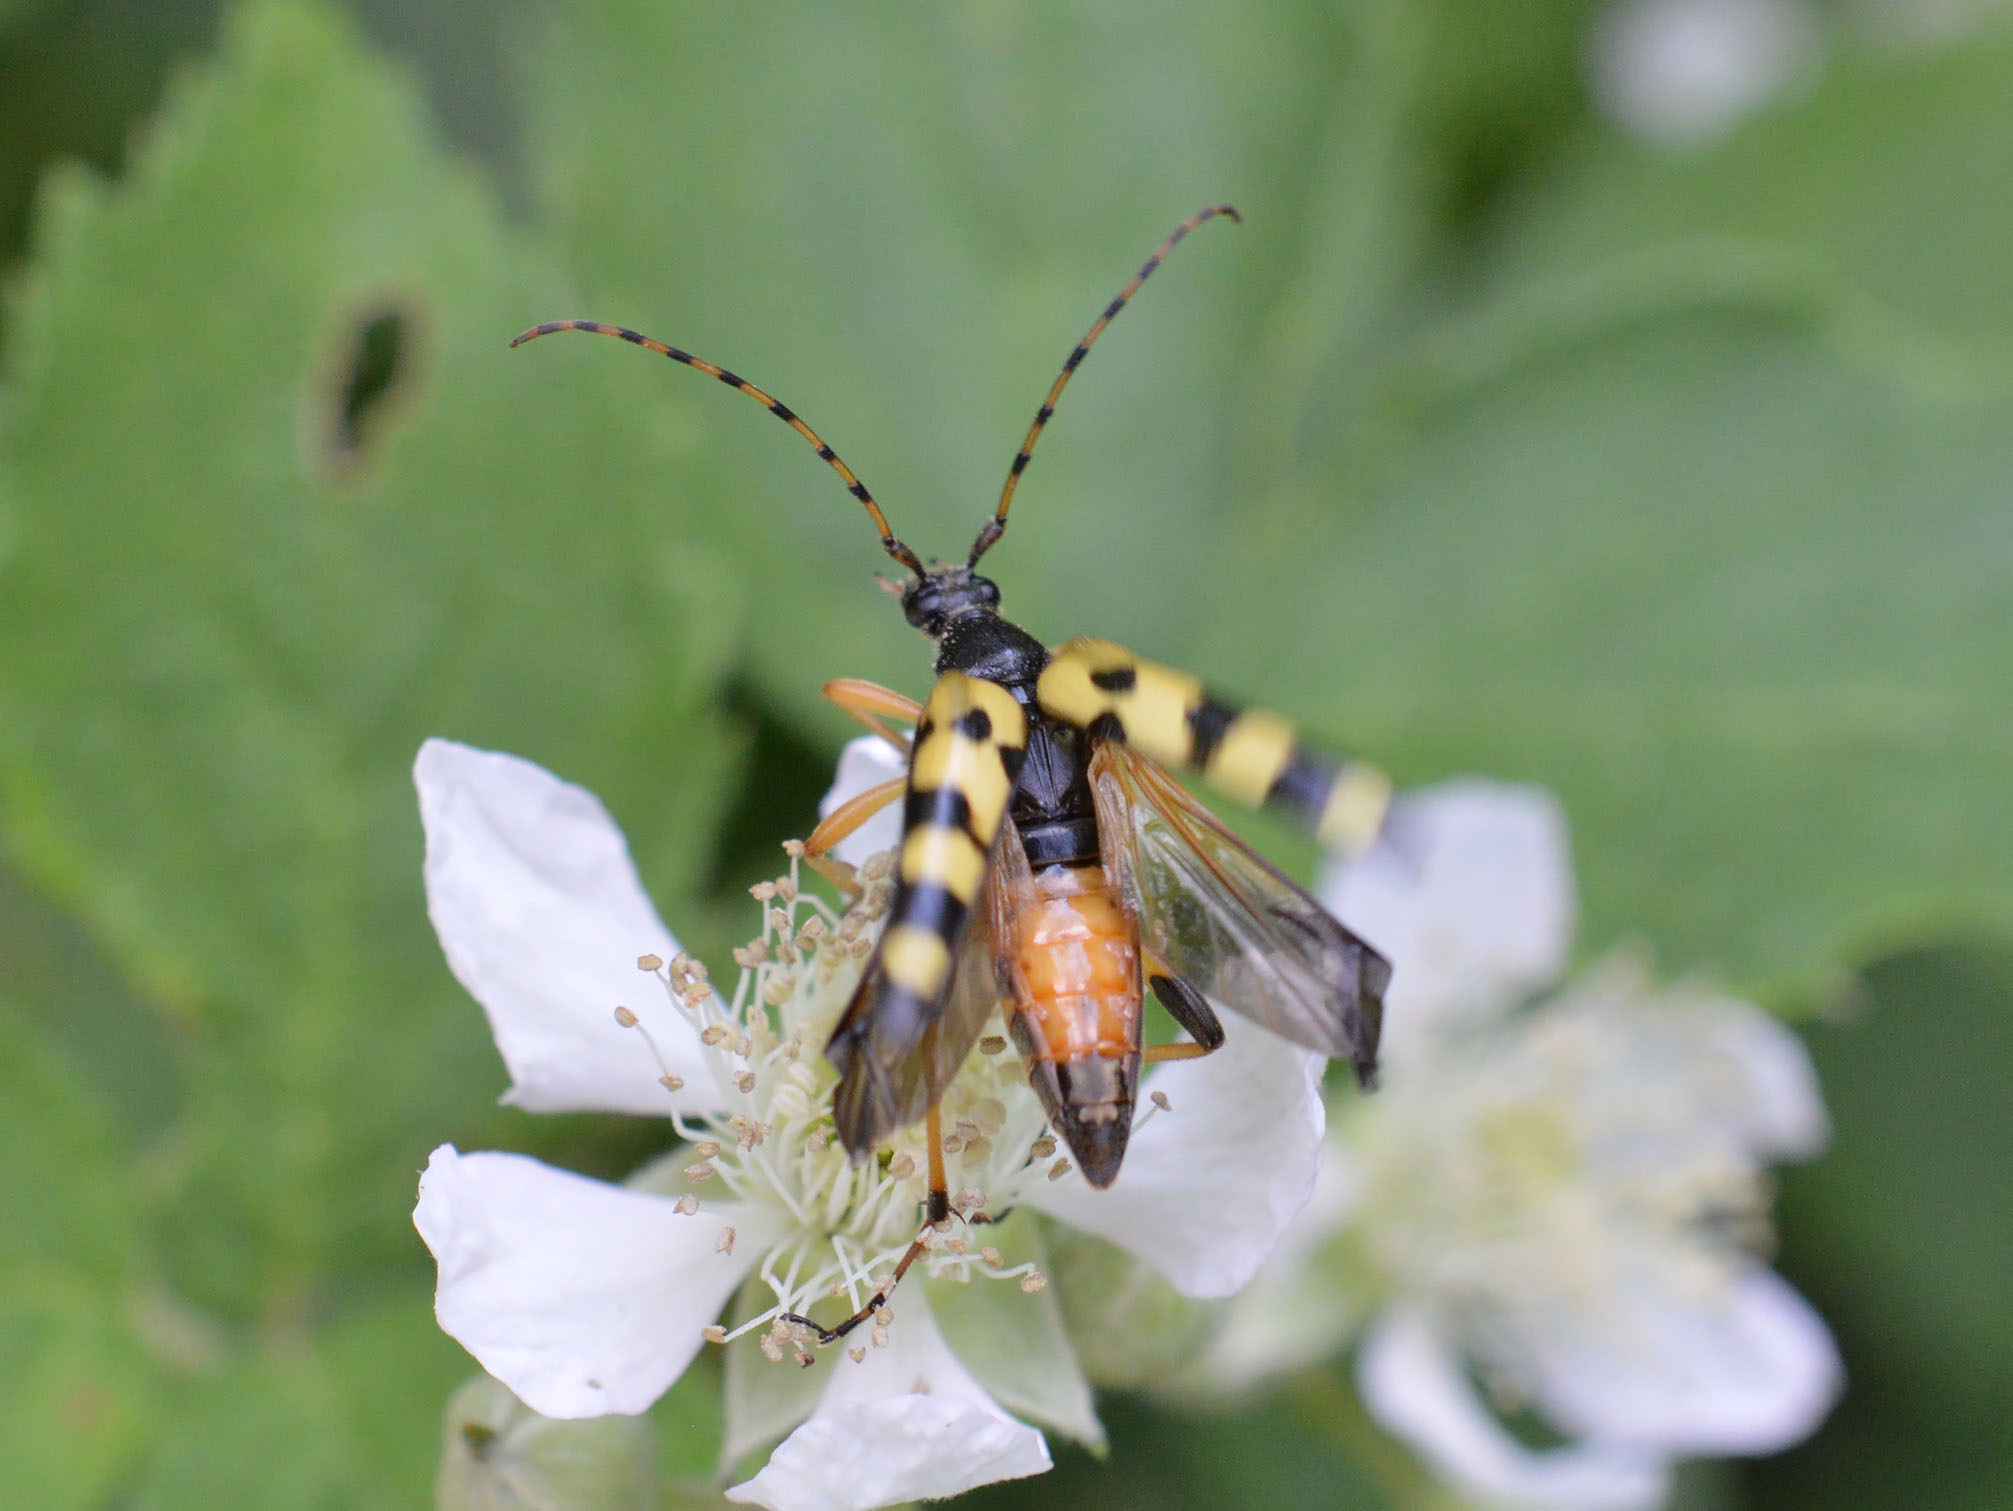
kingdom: Animalia
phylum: Arthropoda
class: Insecta
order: Coleoptera
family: Cerambycidae
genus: Rutpela
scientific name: Rutpela maculata
